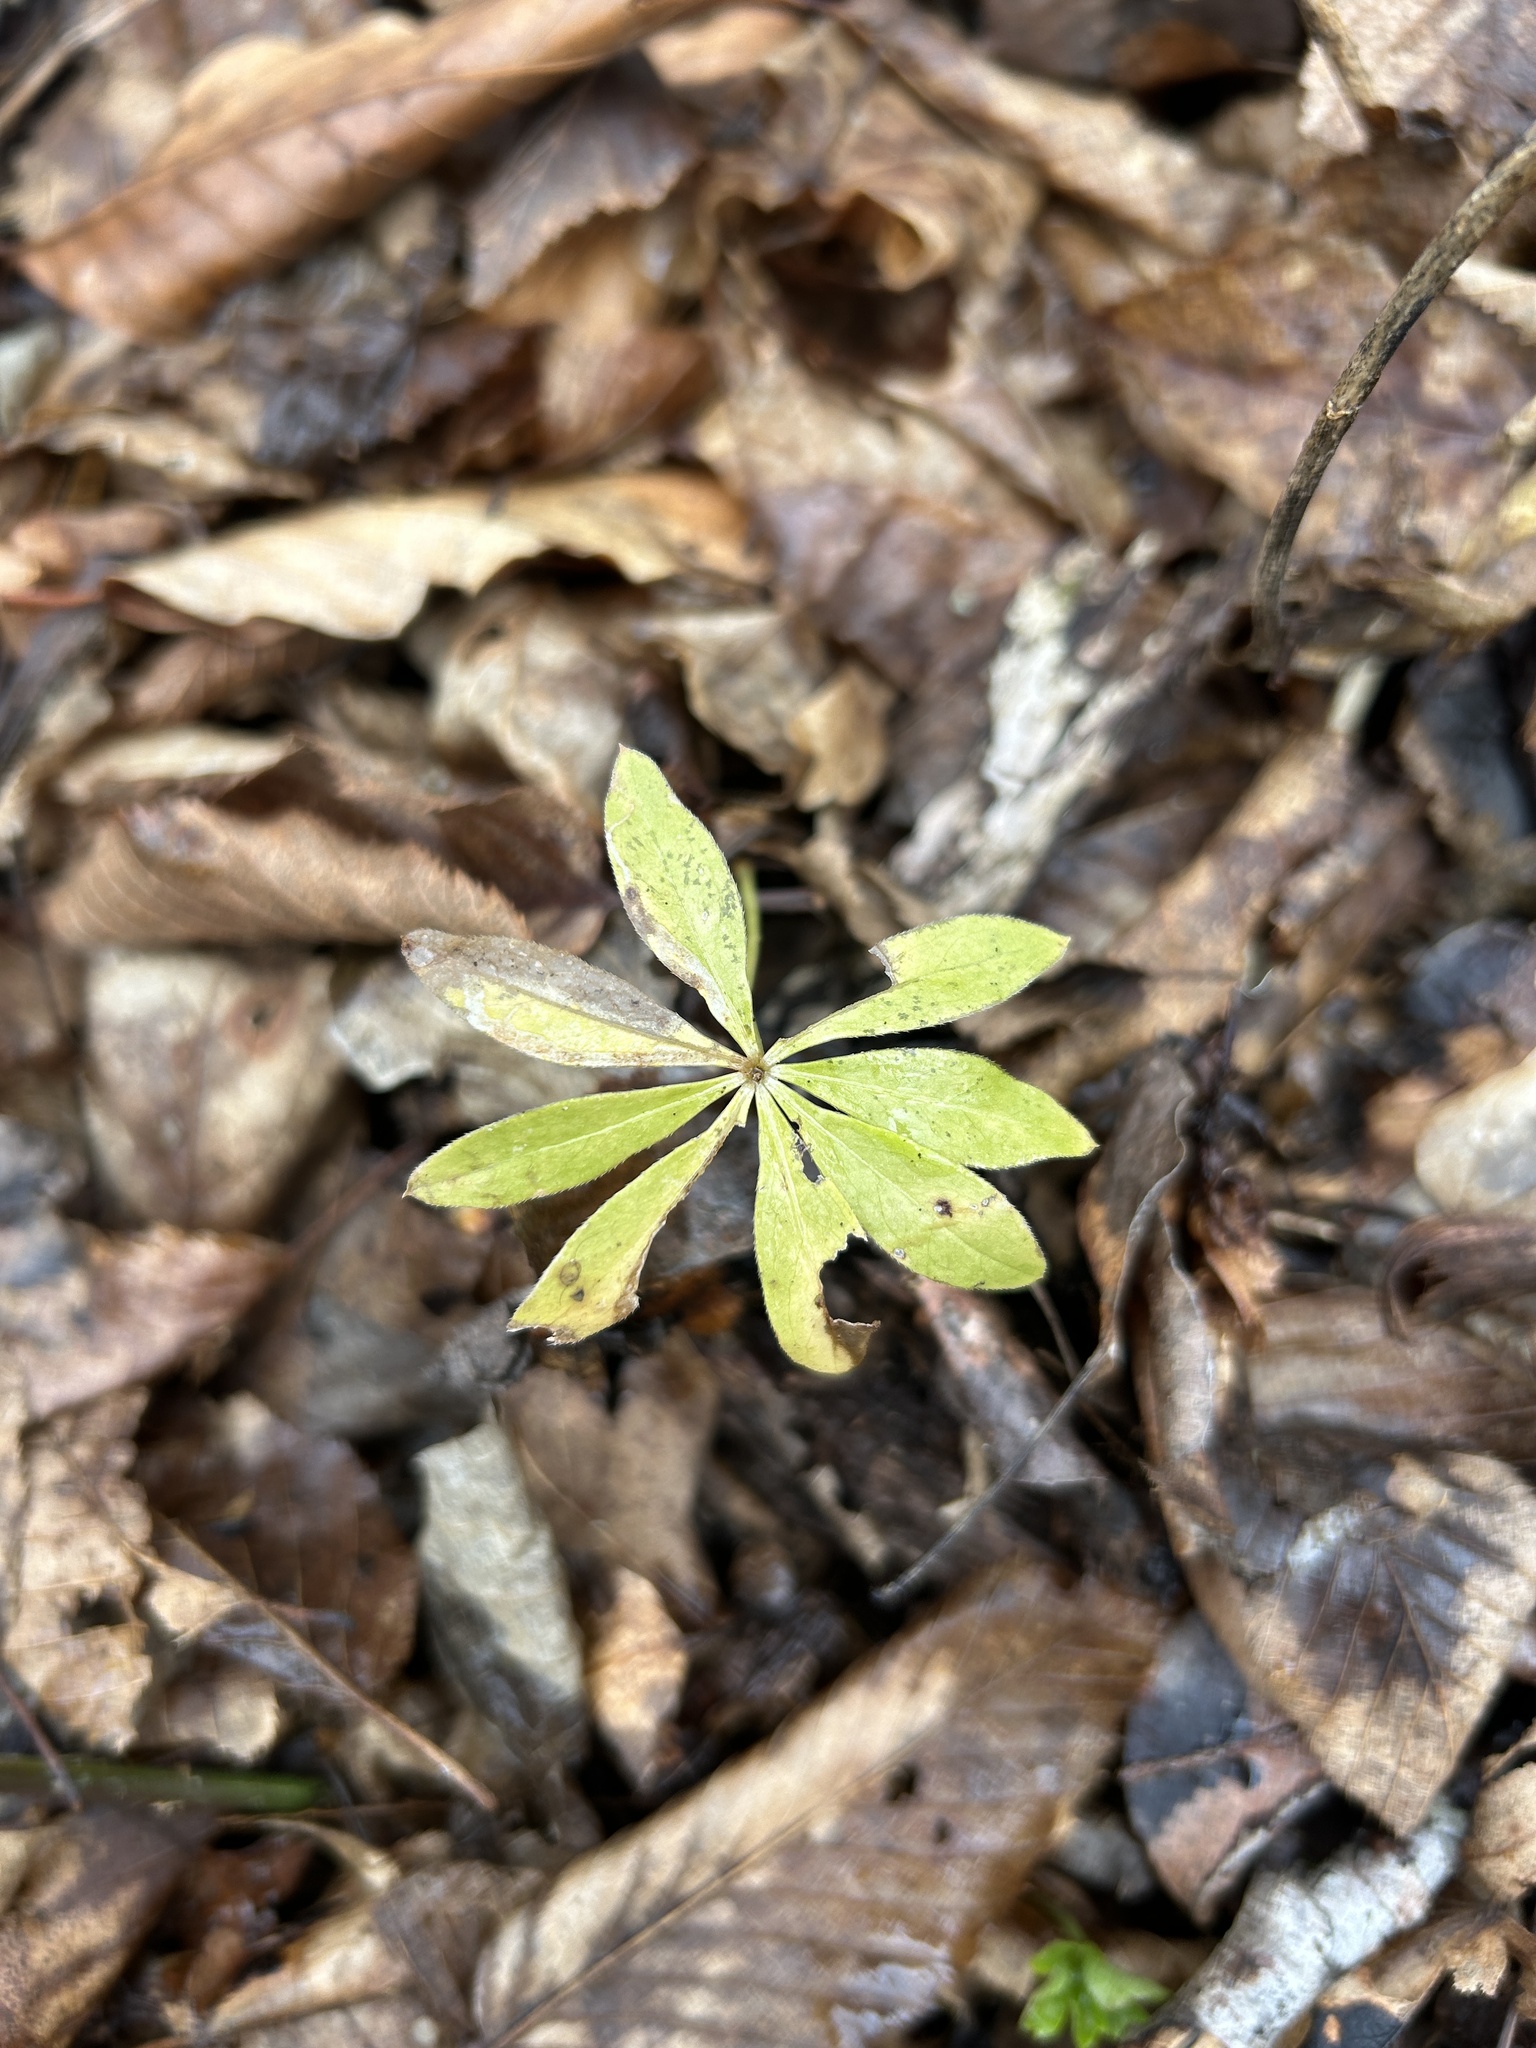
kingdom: Plantae
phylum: Tracheophyta
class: Magnoliopsida
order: Gentianales
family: Rubiaceae
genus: Galium
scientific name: Galium odoratum
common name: Sweet woodruff
